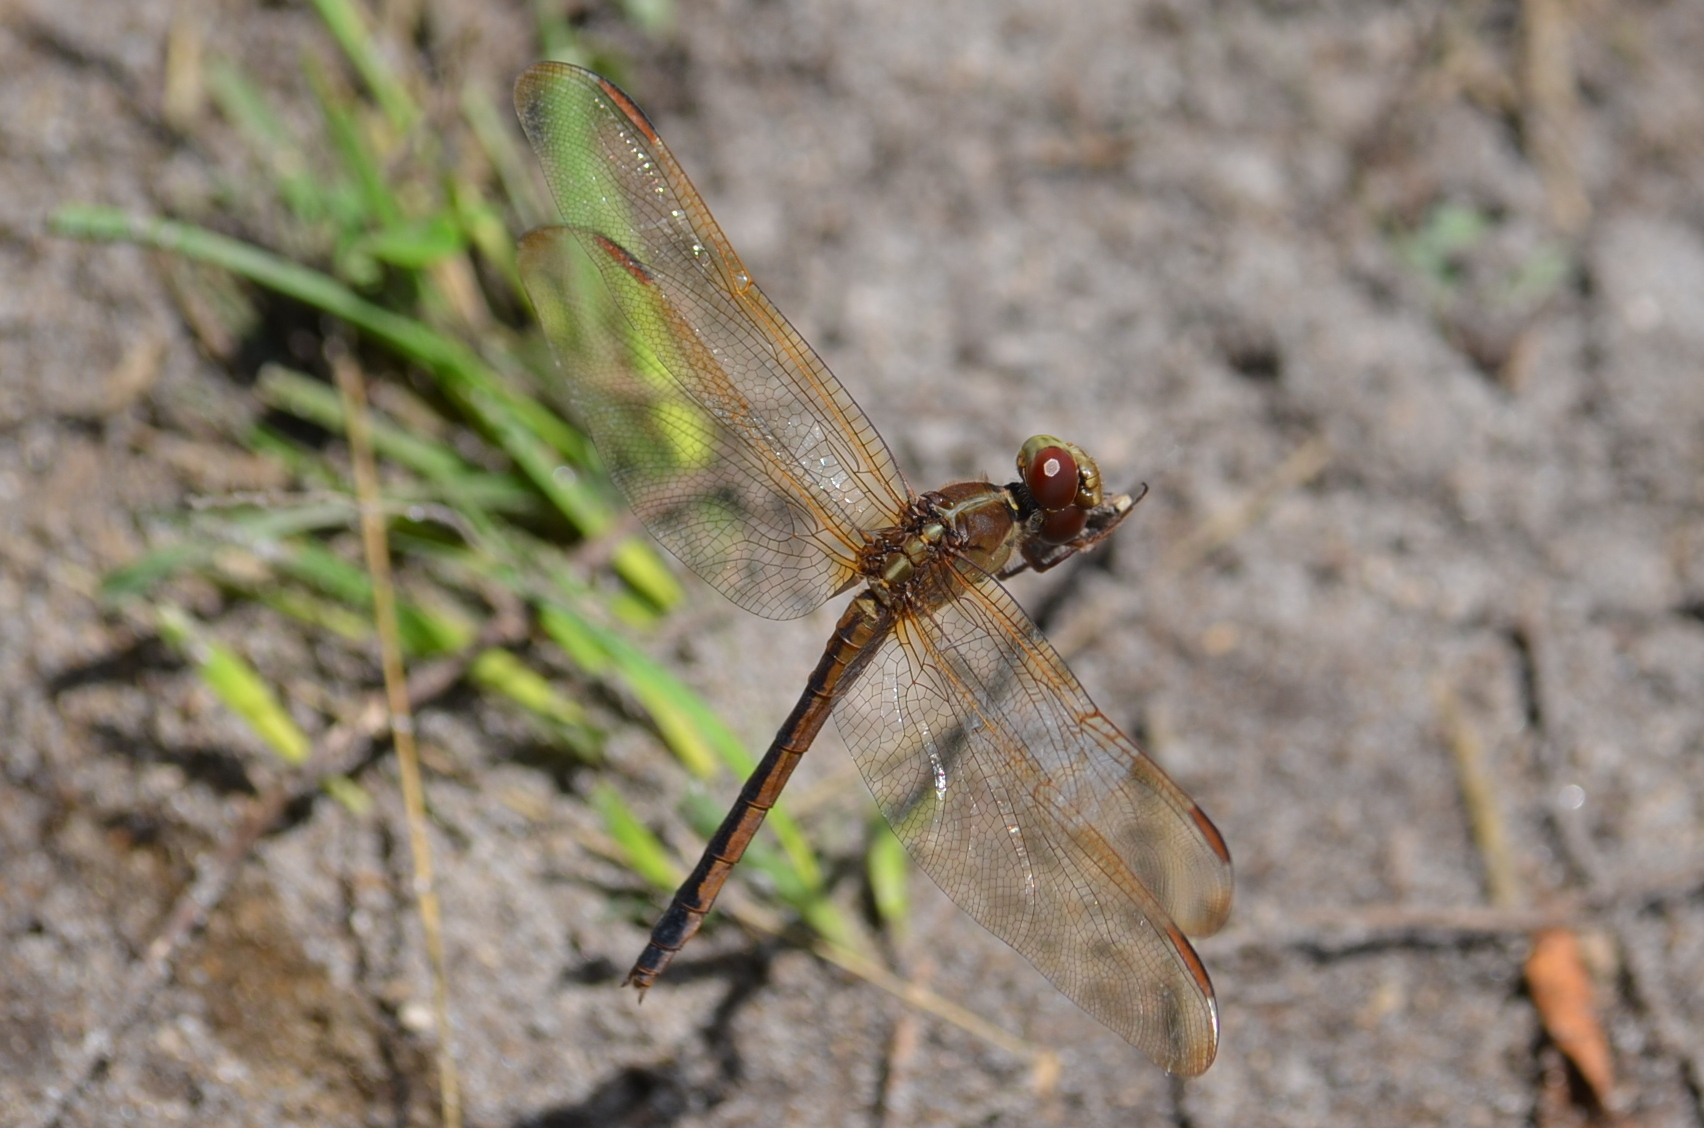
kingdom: Animalia
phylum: Arthropoda
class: Insecta
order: Odonata
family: Libellulidae
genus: Libellula
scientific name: Libellula needhami
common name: Needham's skimmer
